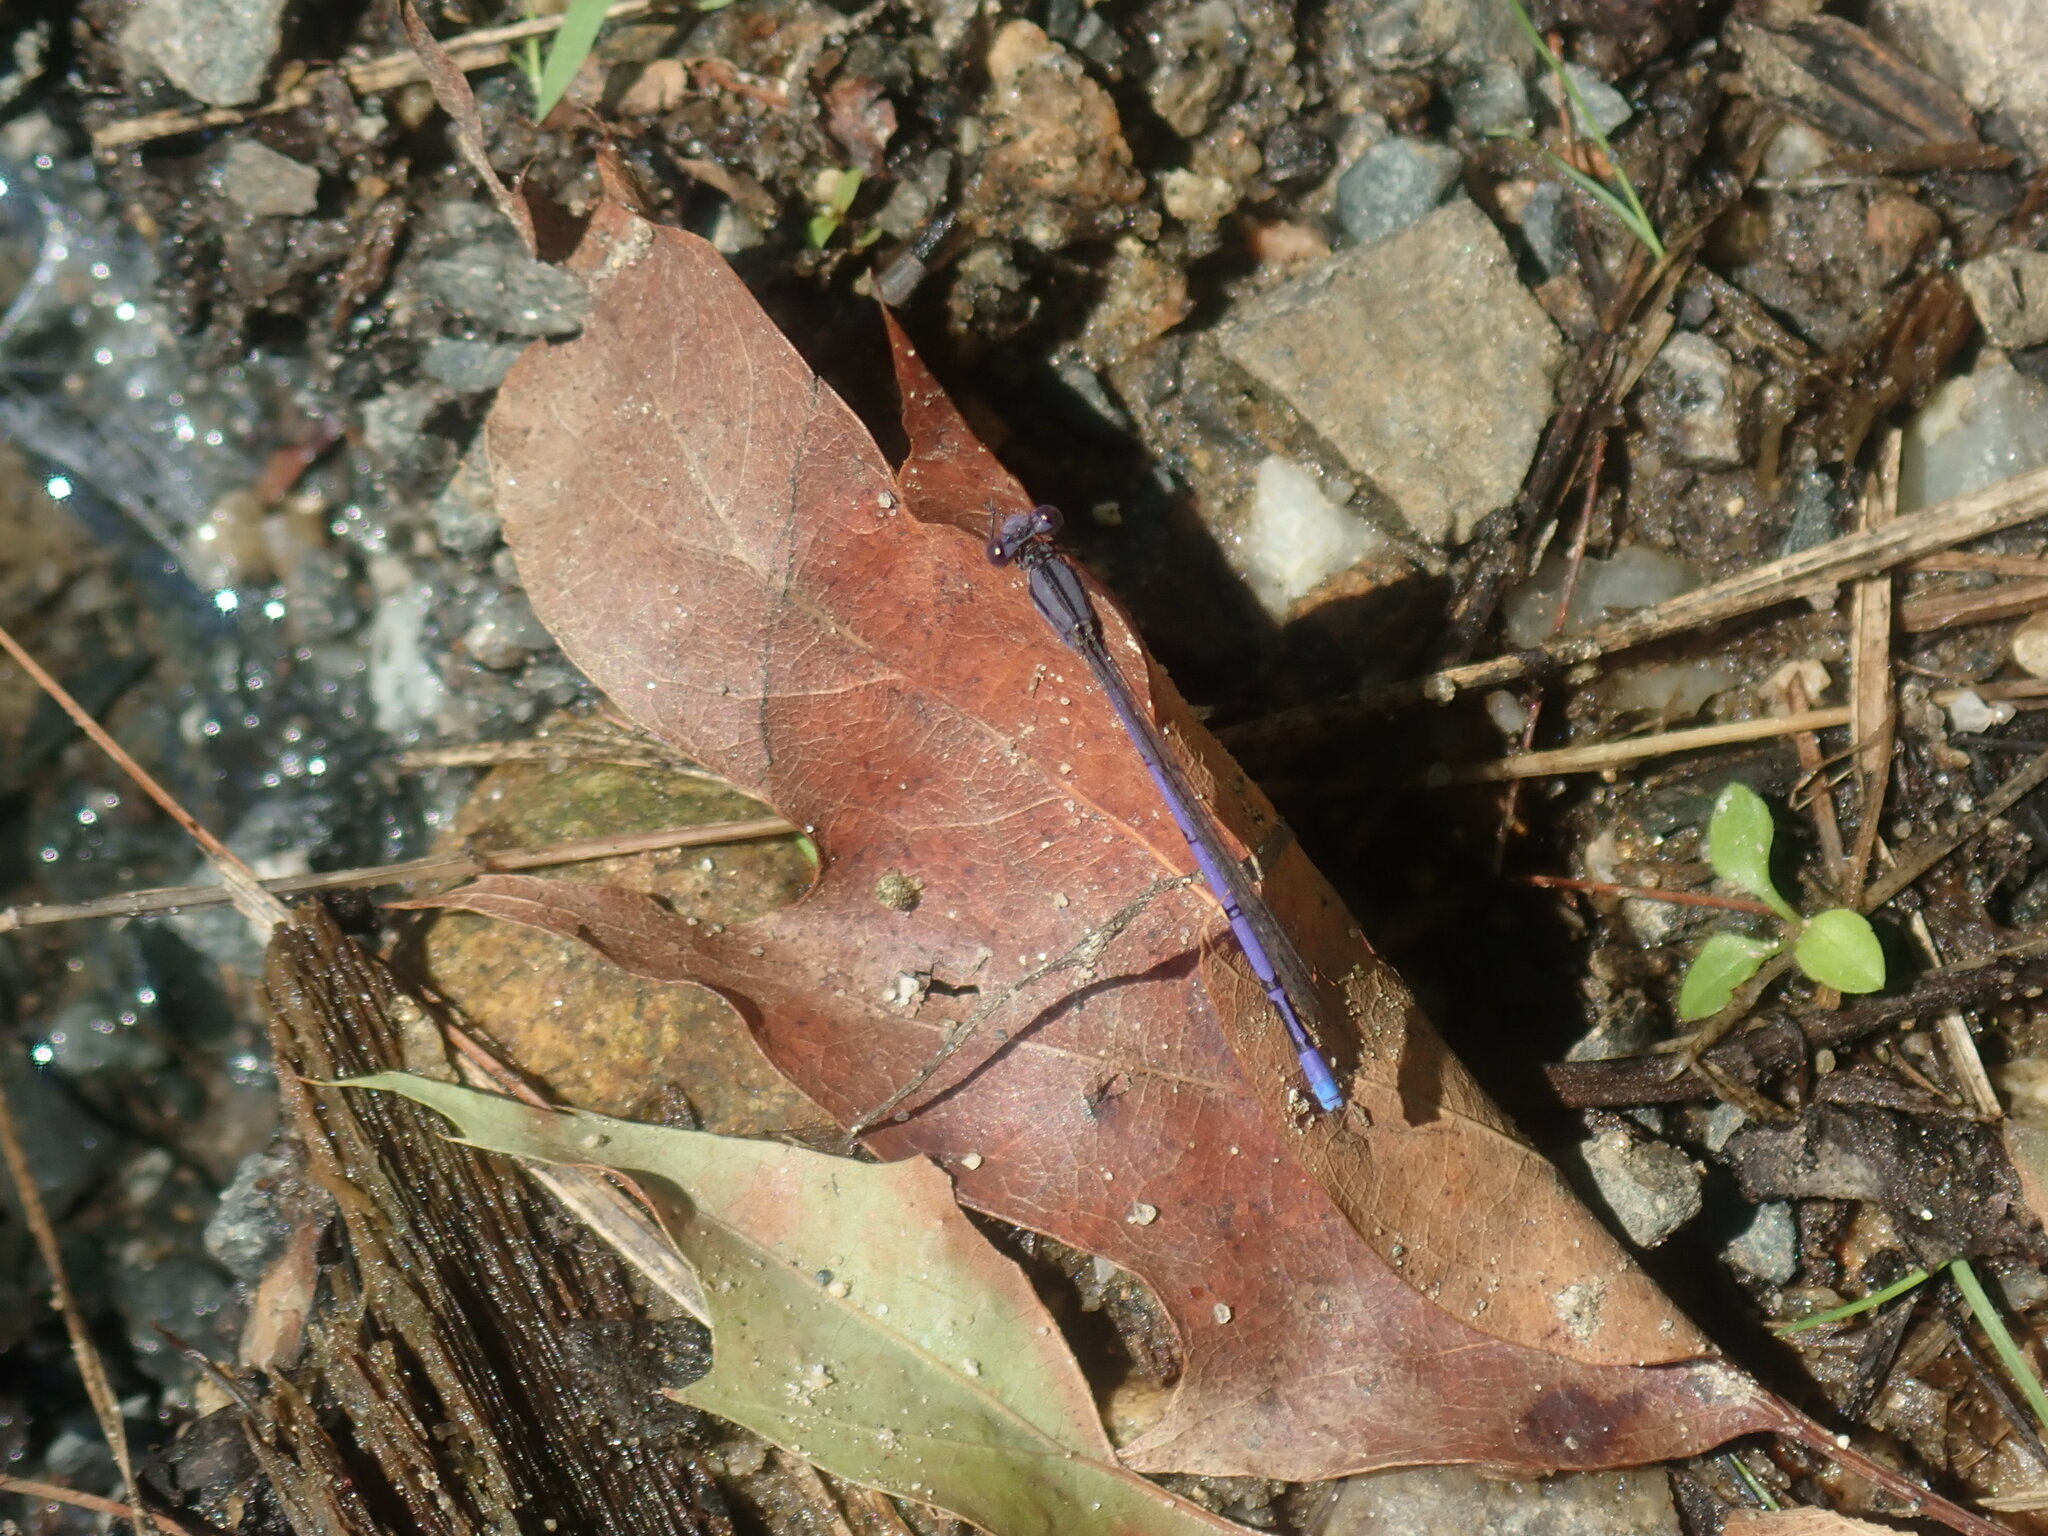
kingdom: Animalia
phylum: Arthropoda
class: Insecta
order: Odonata
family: Coenagrionidae
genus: Argia
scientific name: Argia fumipennis
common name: Variable dancer
